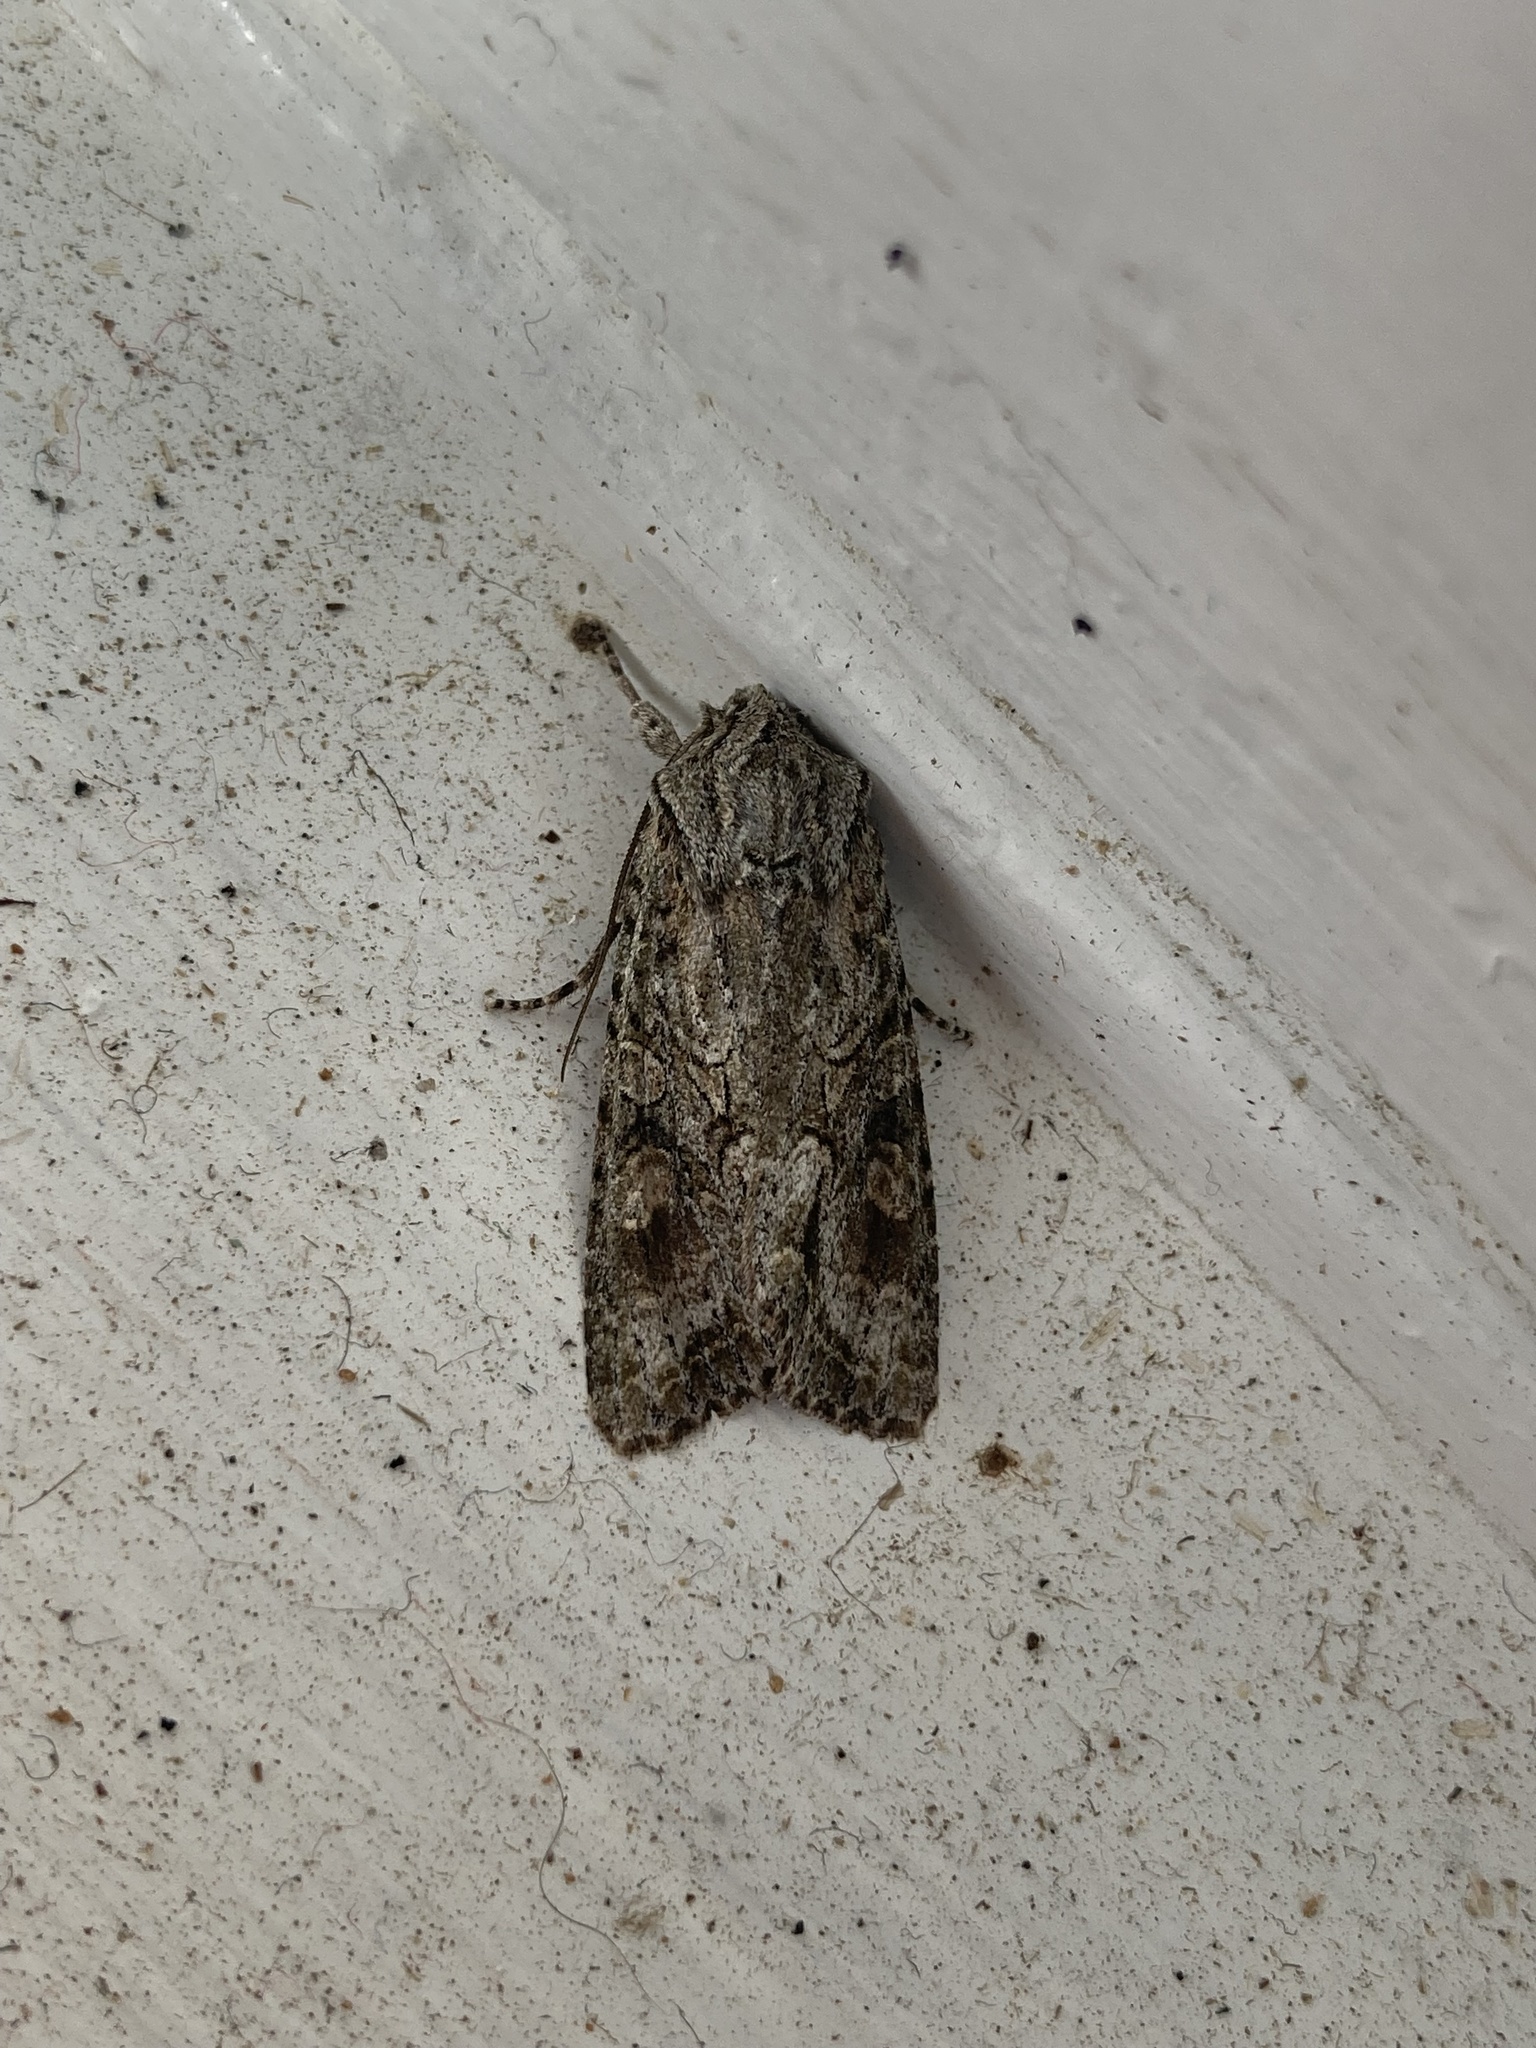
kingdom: Animalia
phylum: Arthropoda
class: Insecta
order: Lepidoptera
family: Noctuidae
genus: Ichneutica
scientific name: Ichneutica mutans
